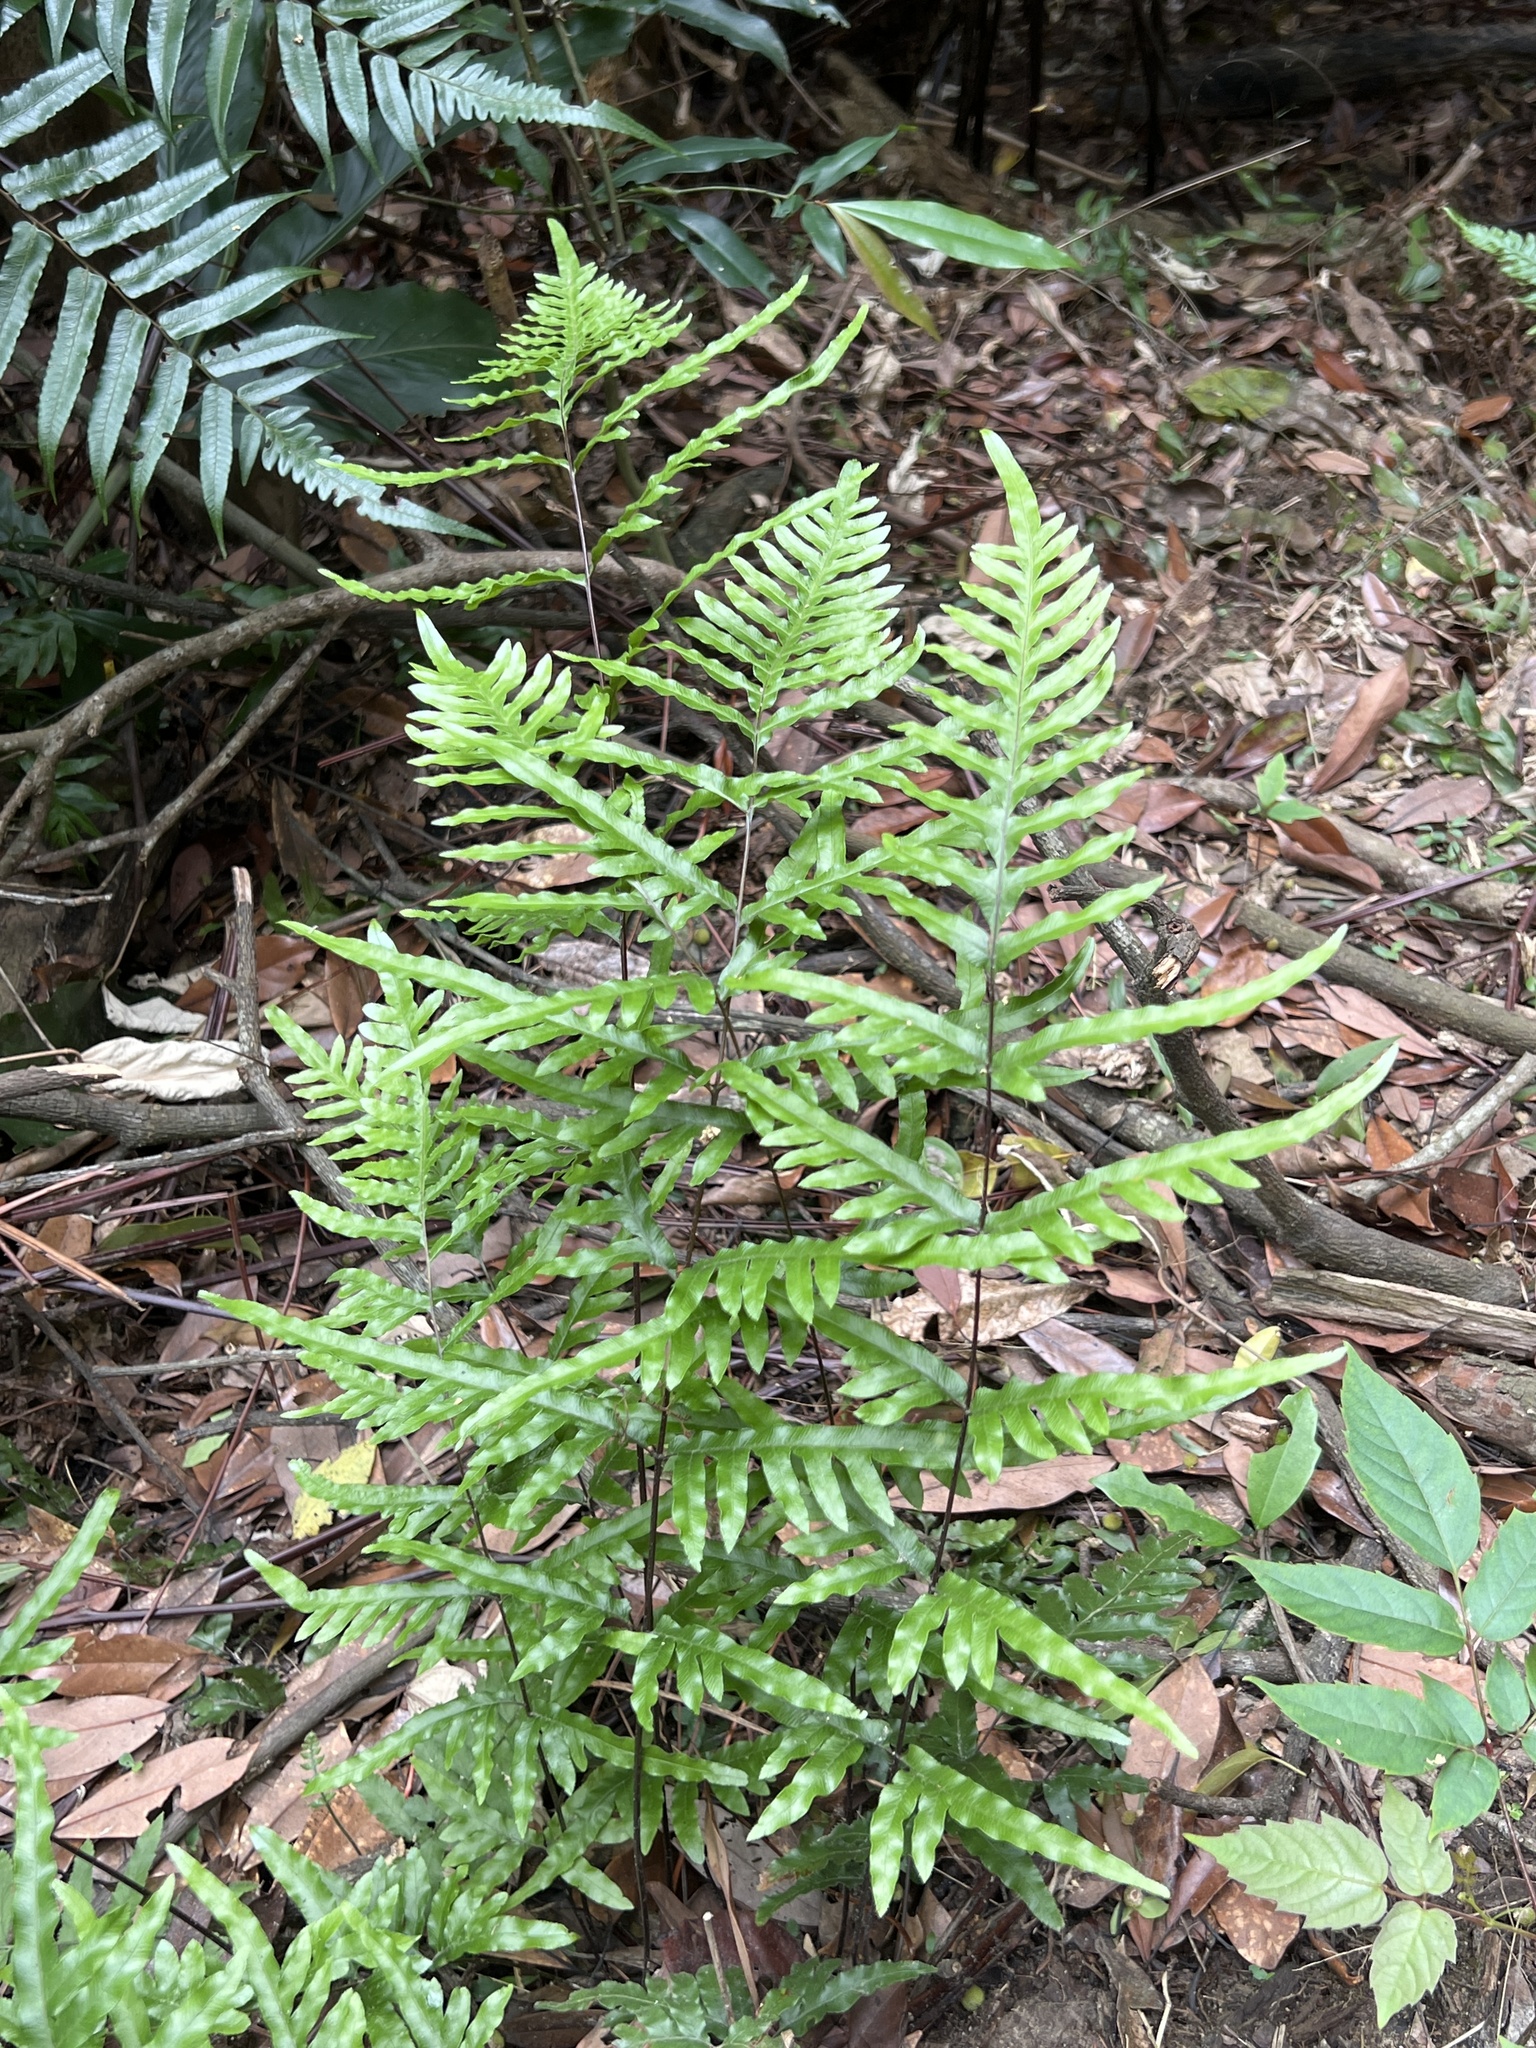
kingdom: Plantae
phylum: Tracheophyta
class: Polypodiopsida
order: Polypodiales
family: Pteridaceae
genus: Pteris
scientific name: Pteris semipinnata
